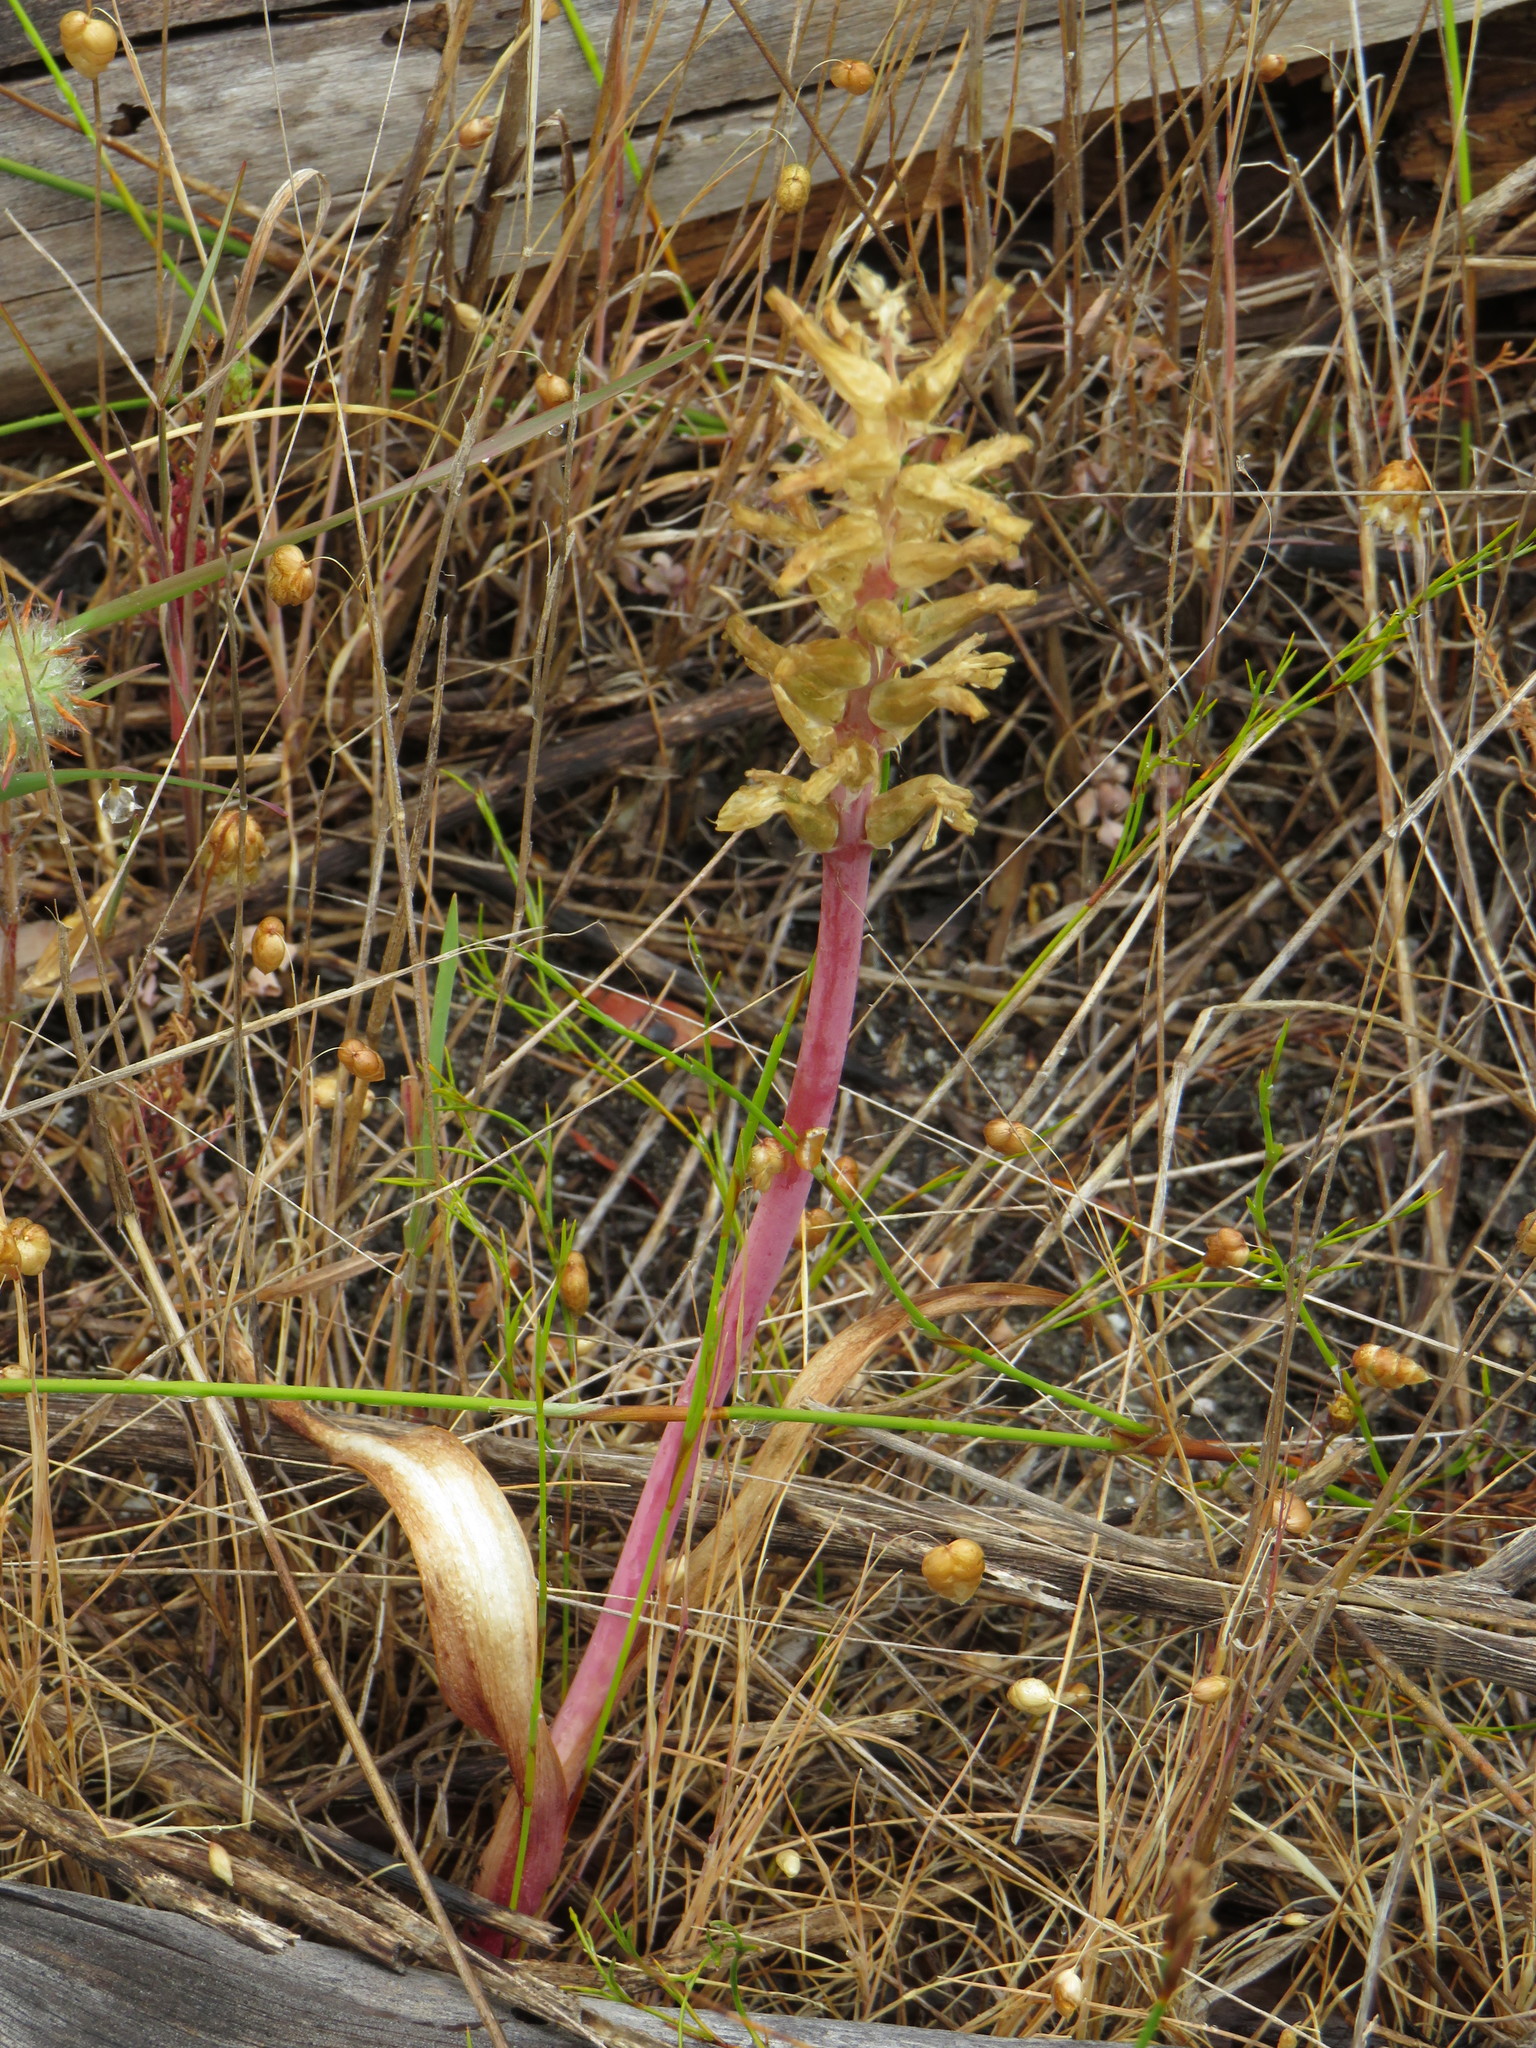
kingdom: Plantae
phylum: Tracheophyta
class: Liliopsida
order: Asparagales
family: Asparagaceae
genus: Lachenalia
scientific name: Lachenalia orchioides
